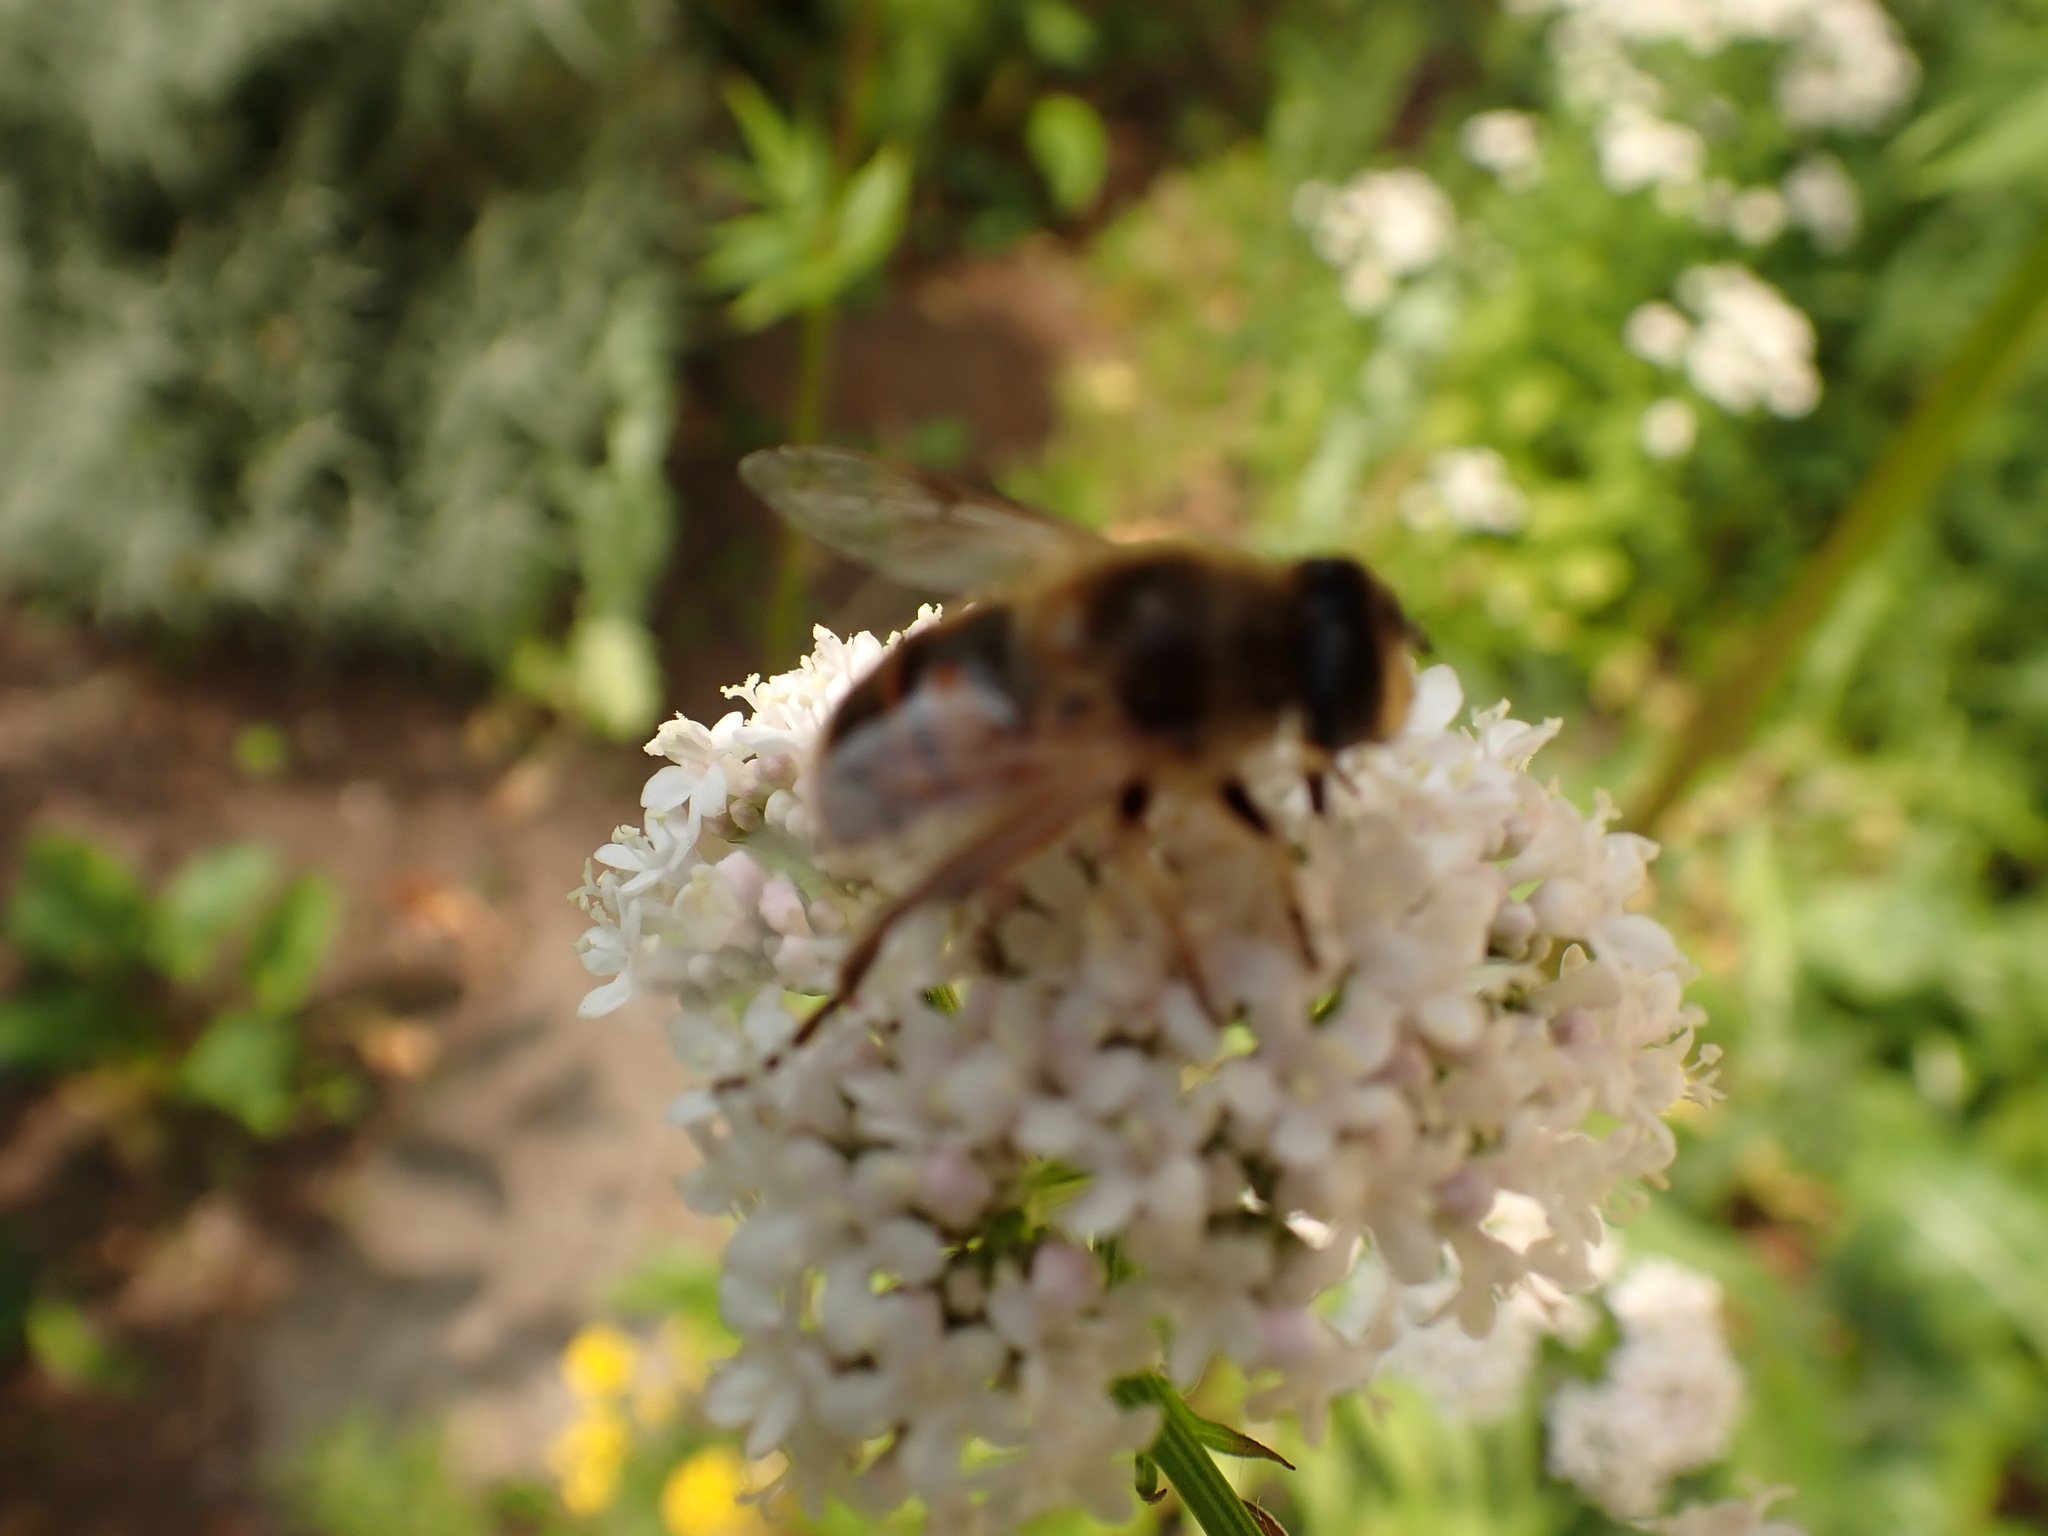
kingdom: Animalia
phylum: Arthropoda
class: Insecta
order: Diptera
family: Syrphidae
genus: Eristalis
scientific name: Eristalis tenax
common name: Drone fly
